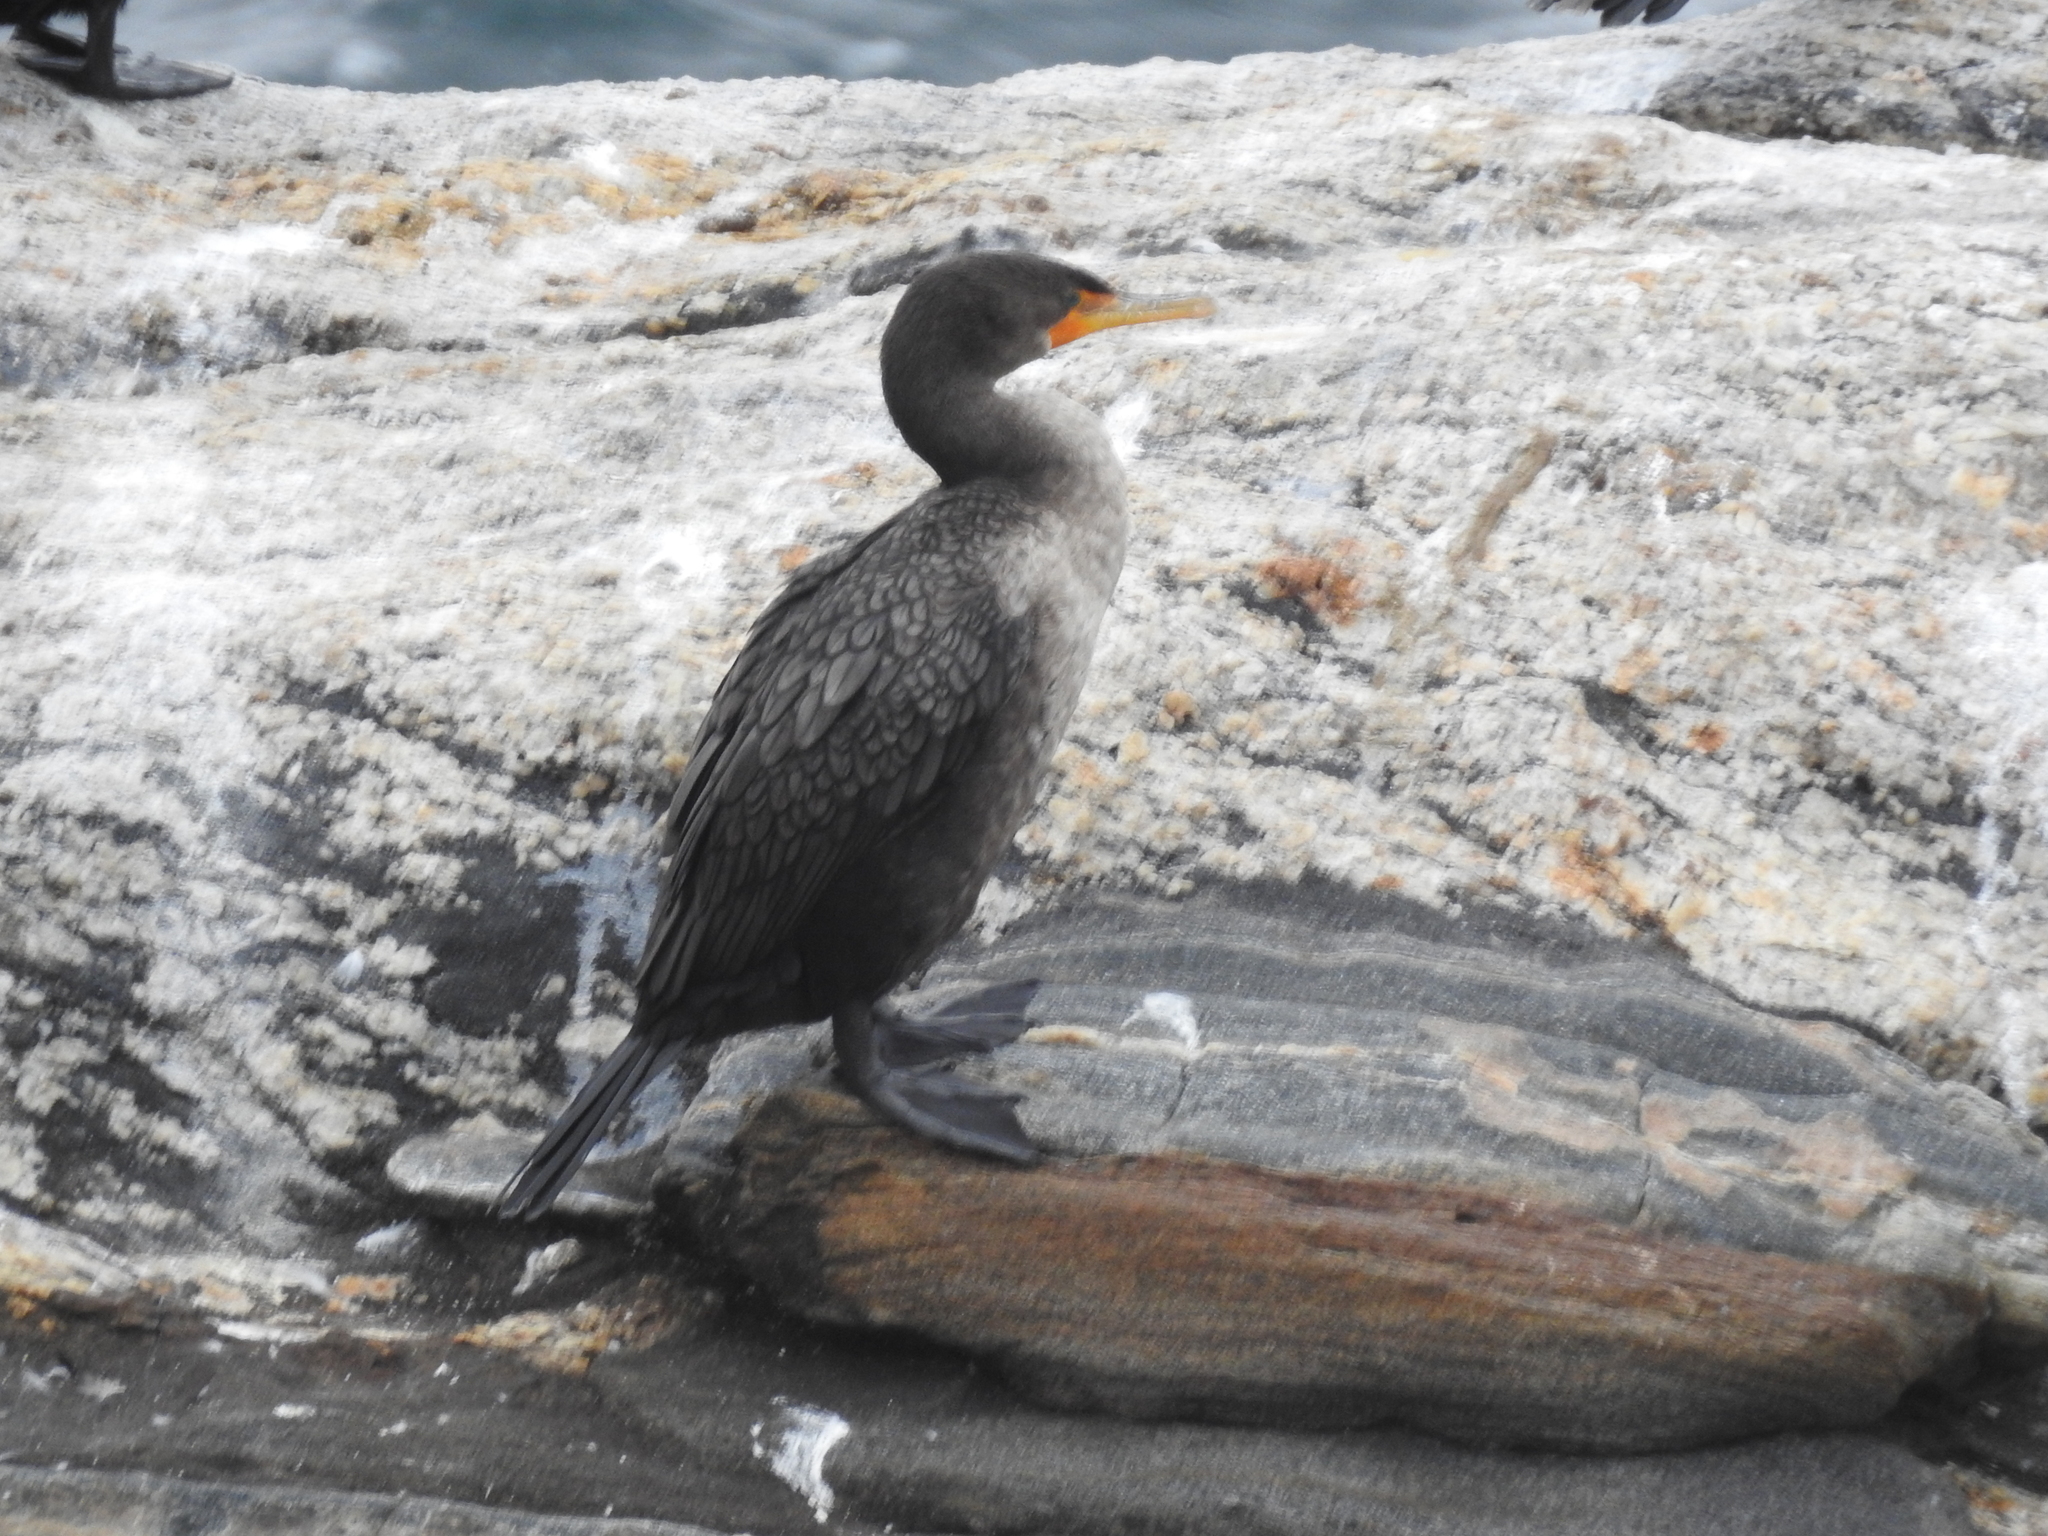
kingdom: Animalia
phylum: Chordata
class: Aves
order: Suliformes
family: Phalacrocoracidae
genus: Phalacrocorax
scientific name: Phalacrocorax auritus
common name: Double-crested cormorant
